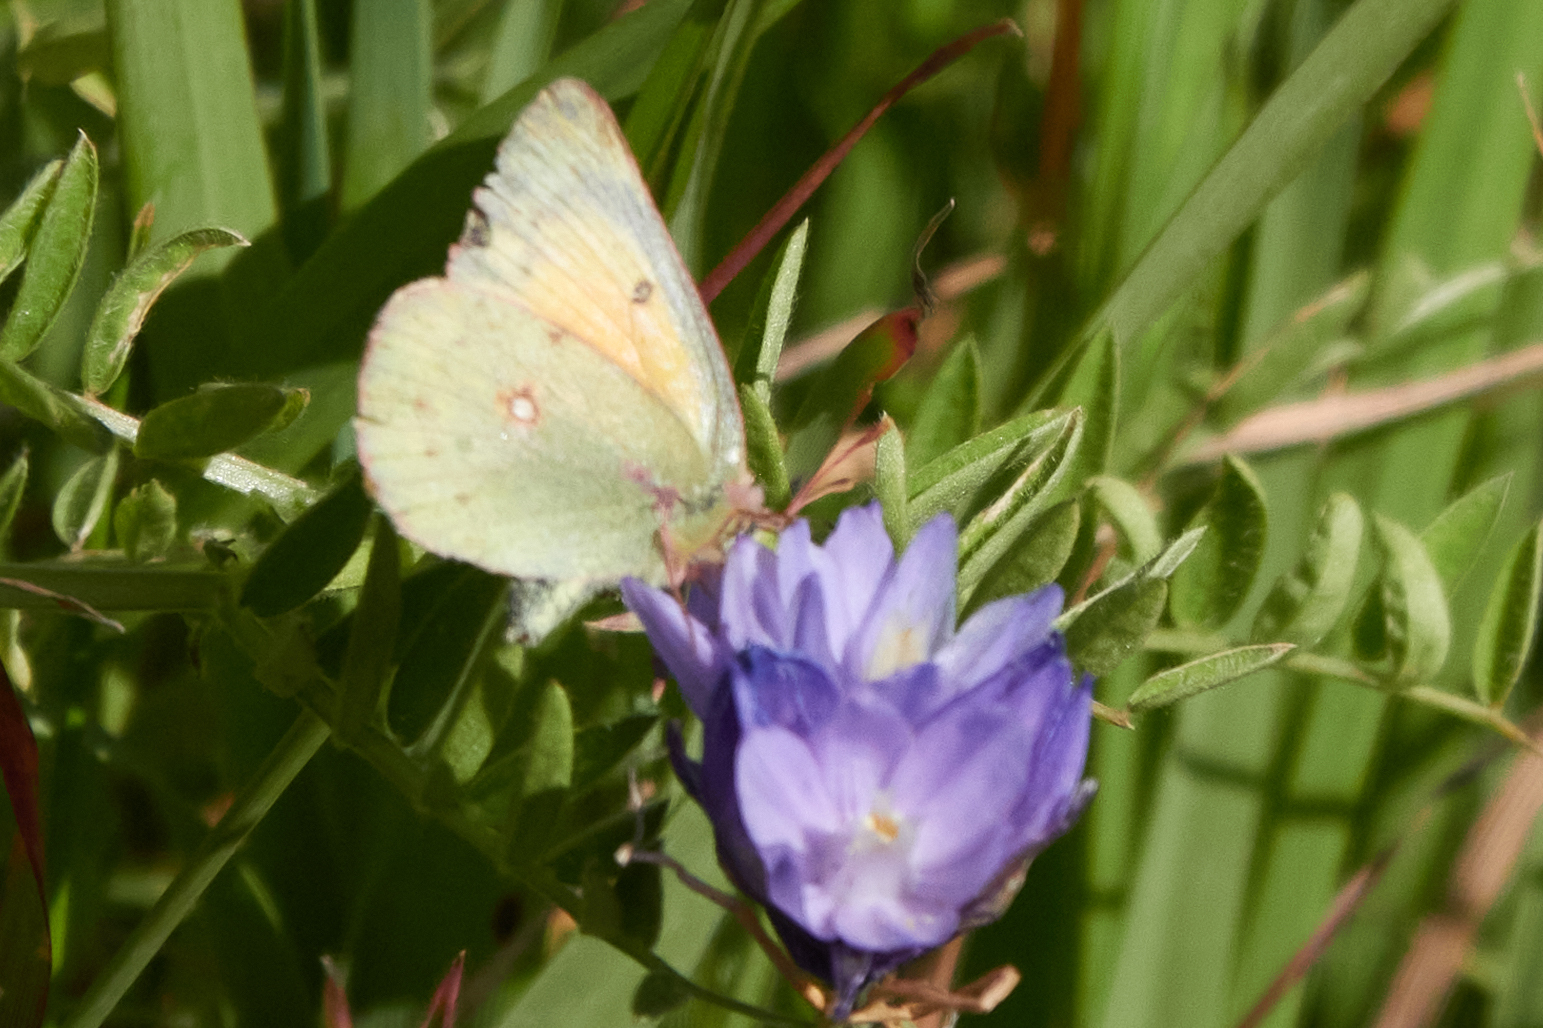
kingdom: Animalia
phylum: Arthropoda
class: Insecta
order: Lepidoptera
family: Pieridae
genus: Colias
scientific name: Colias eurytheme
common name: Alfalfa butterfly
